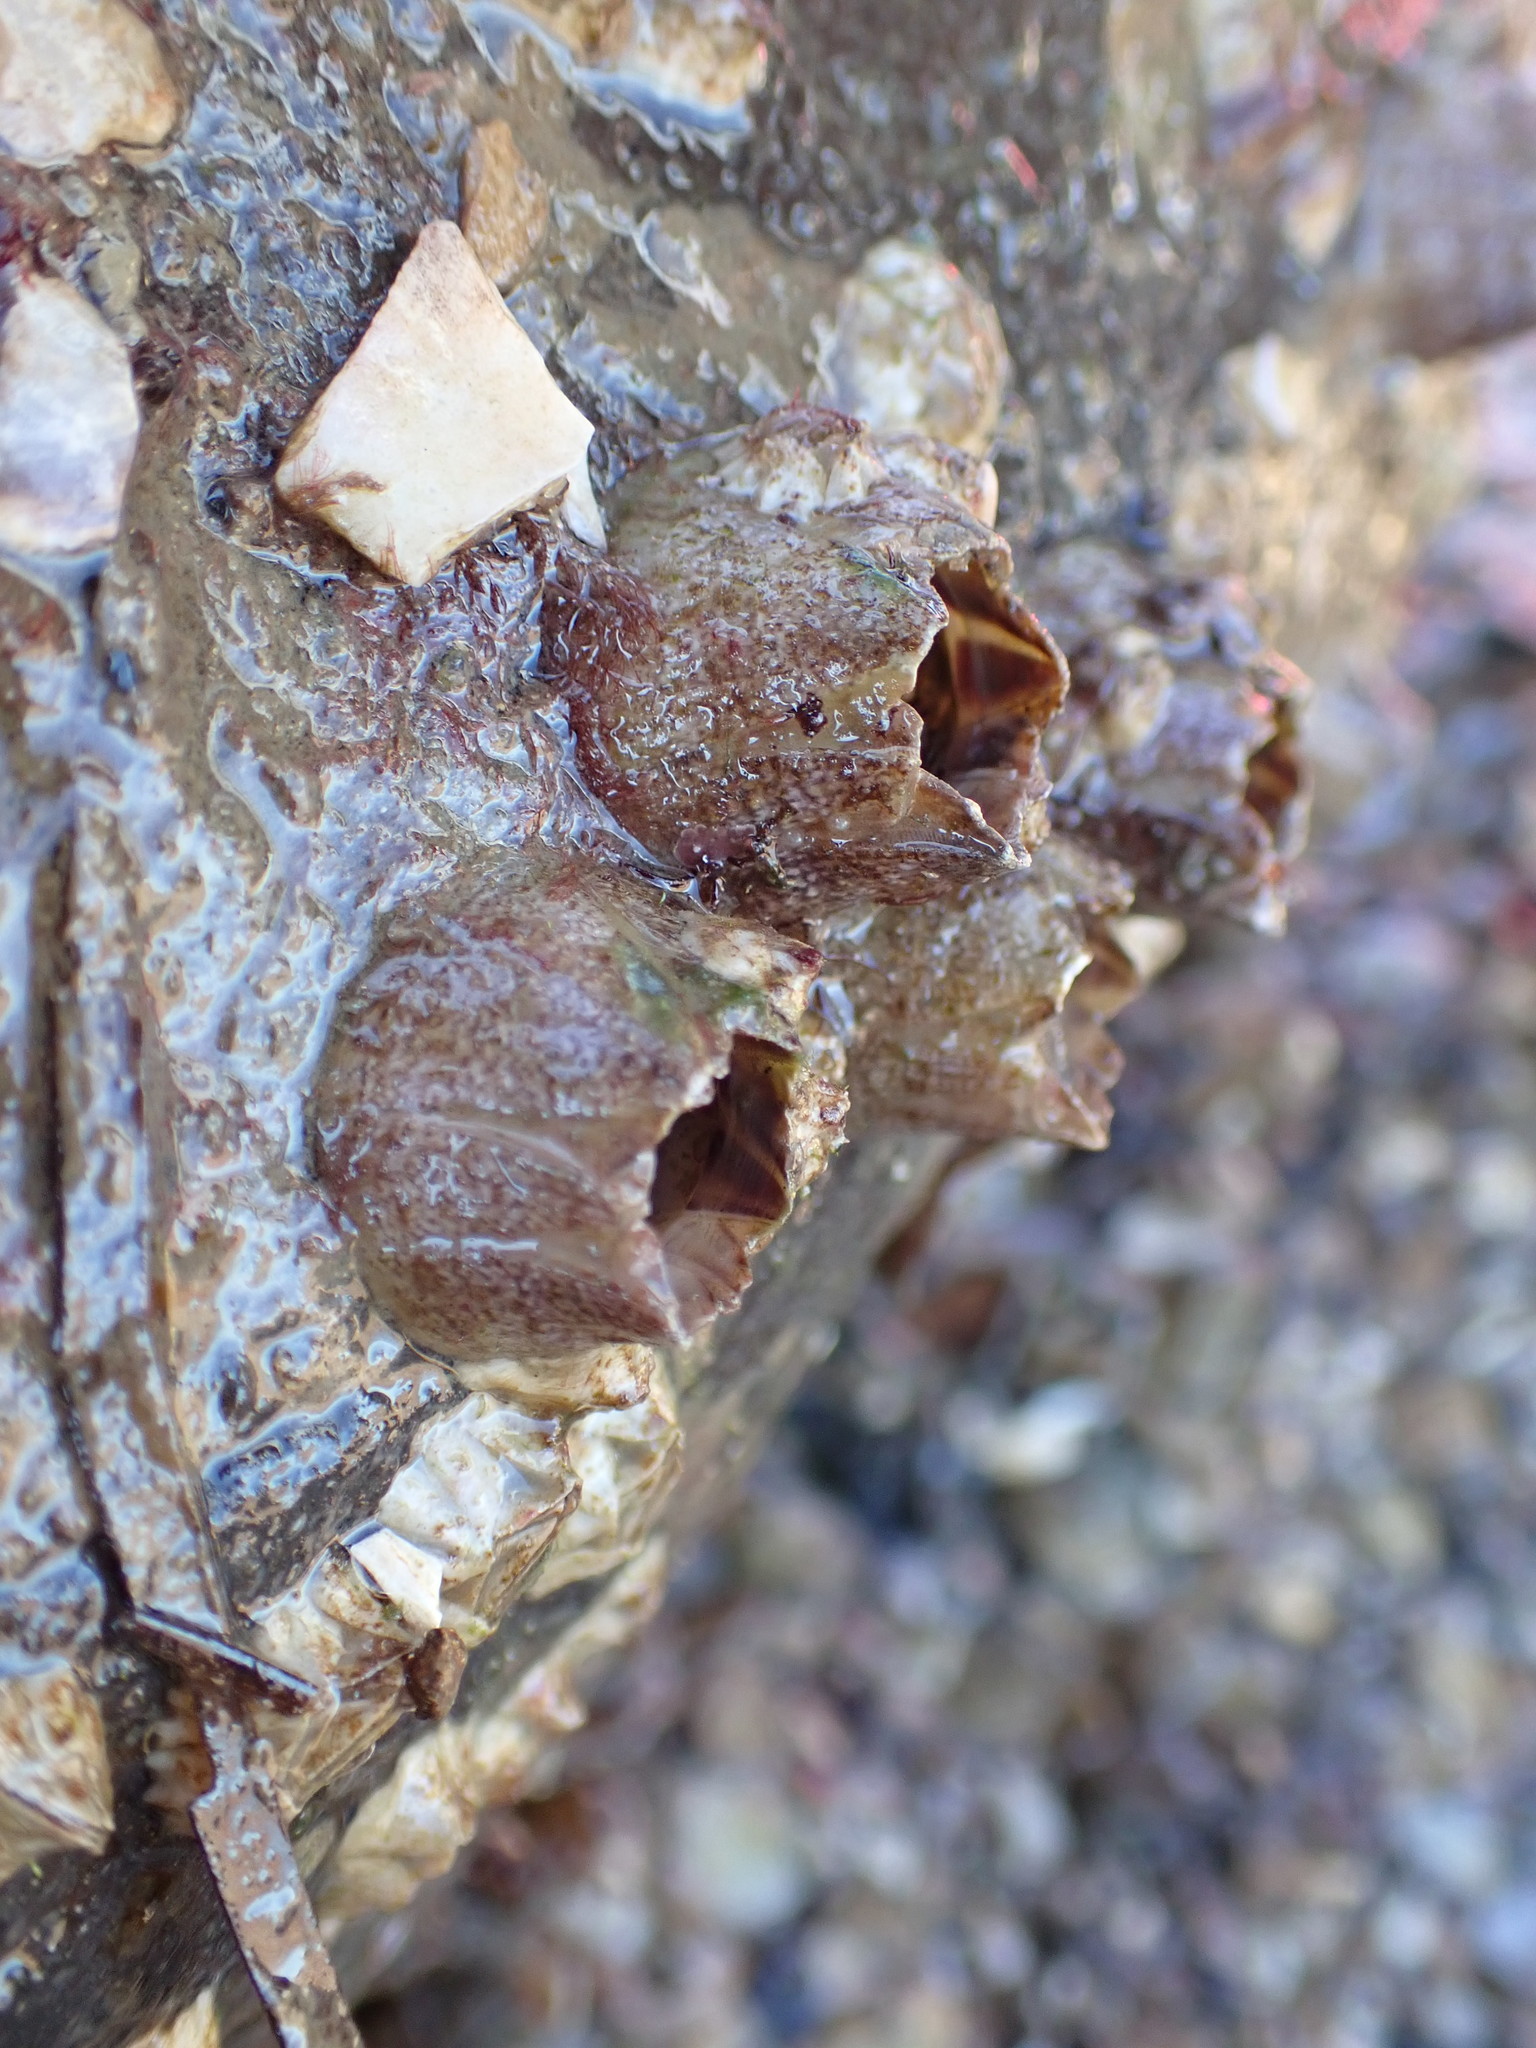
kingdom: Animalia
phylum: Arthropoda
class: Maxillopoda
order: Sessilia
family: Balanidae
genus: Fistulobalanus
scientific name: Fistulobalanus kondakovi
